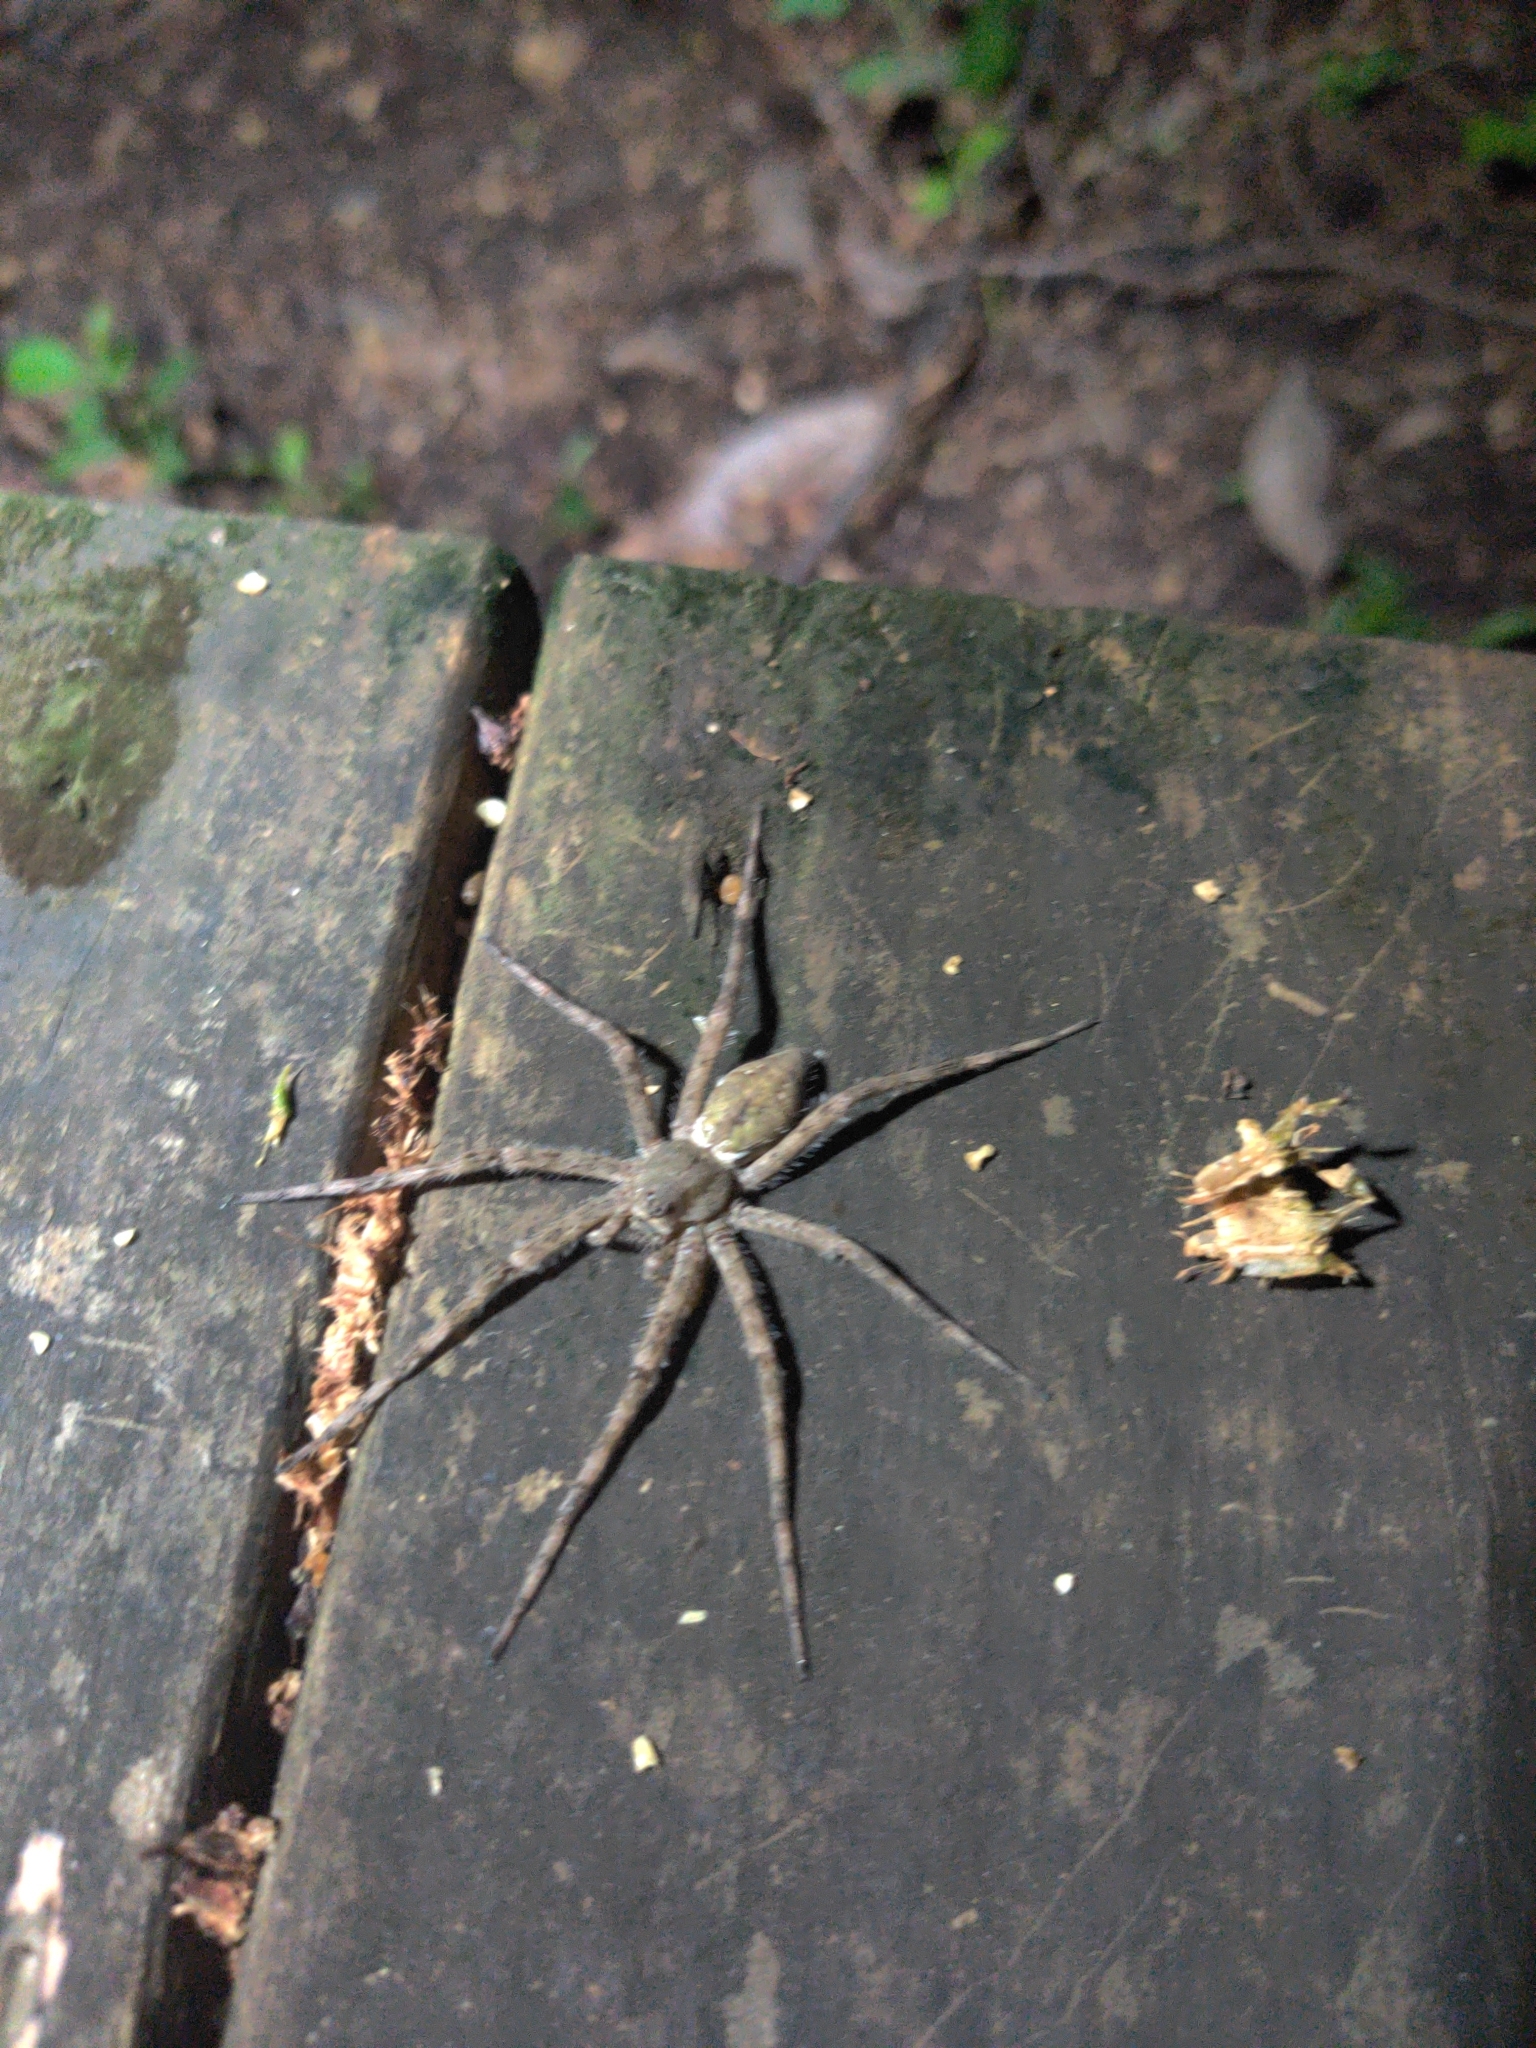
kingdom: Animalia
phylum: Arthropoda
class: Arachnida
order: Araneae
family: Pisauridae
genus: Dolomedes
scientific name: Dolomedes albineus
